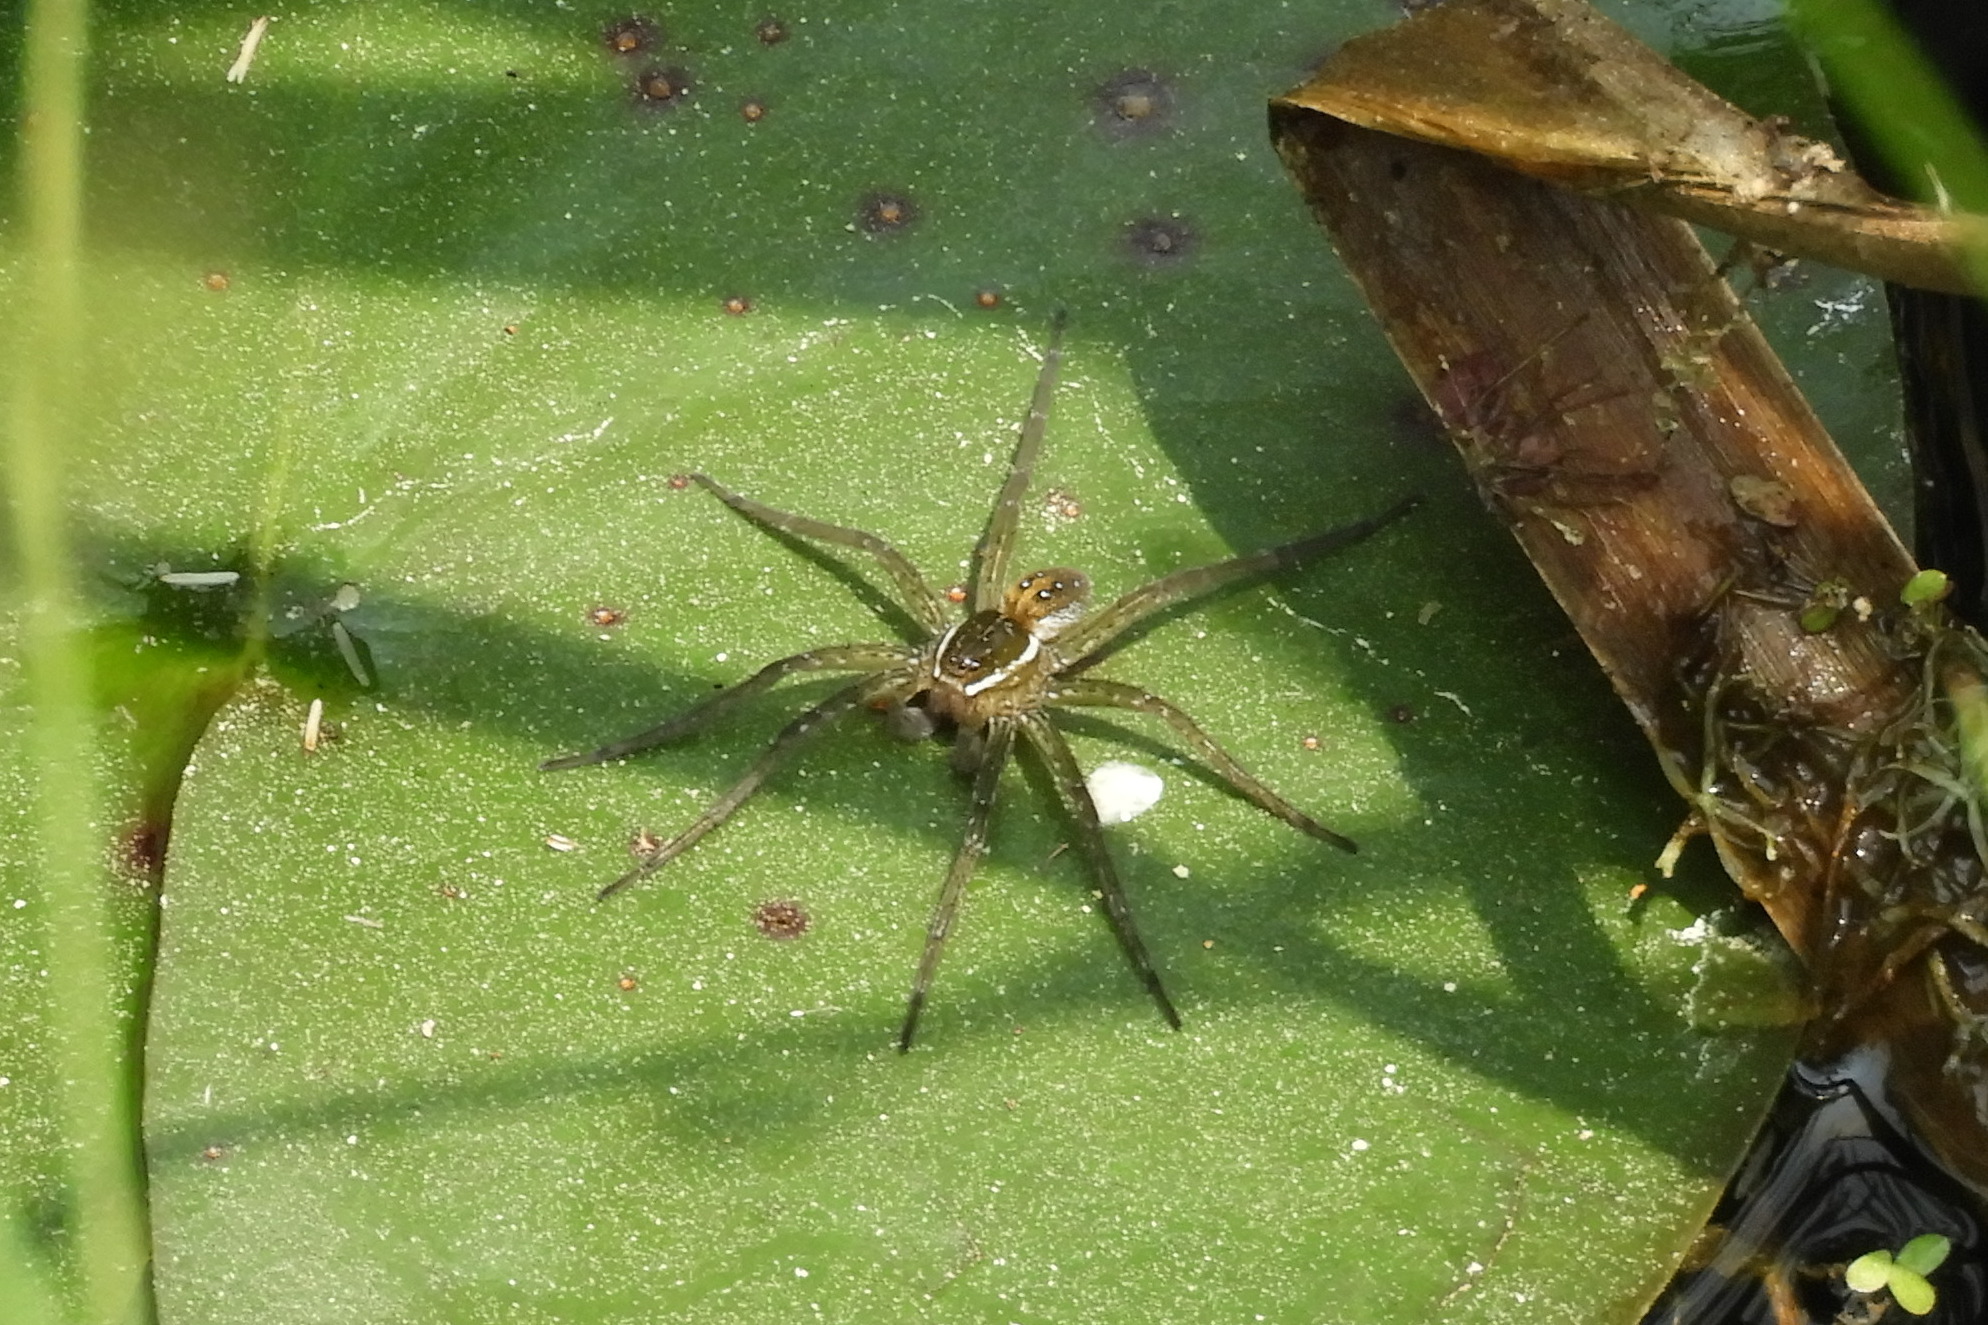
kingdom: Animalia
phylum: Arthropoda
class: Arachnida
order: Araneae
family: Pisauridae
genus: Dolomedes
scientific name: Dolomedes triton
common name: Six-spotted fishing spider
